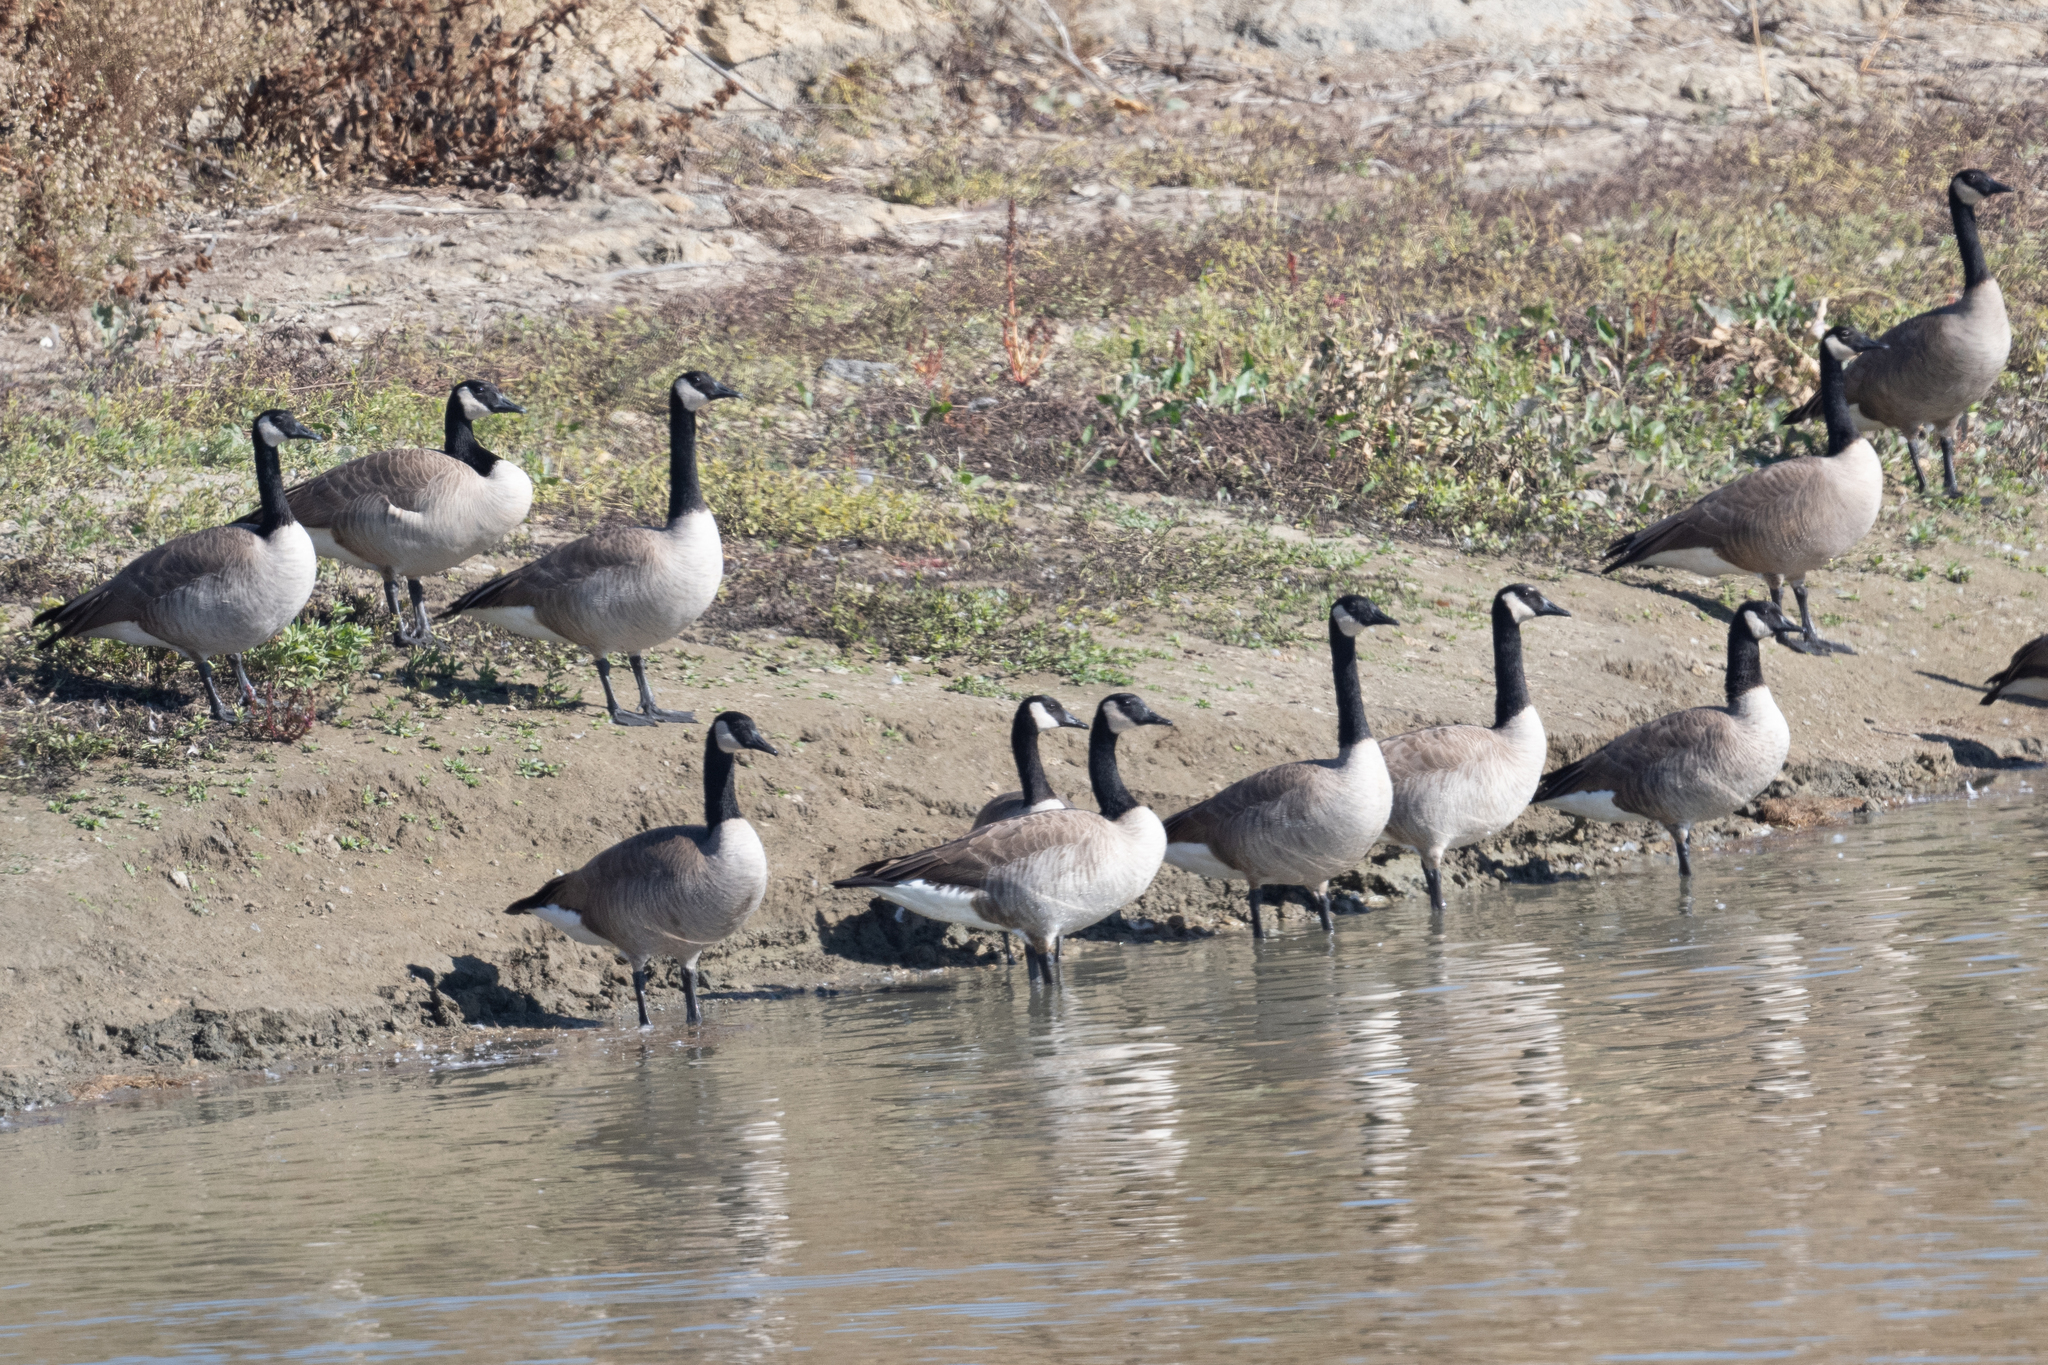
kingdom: Animalia
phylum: Chordata
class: Aves
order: Anseriformes
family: Anatidae
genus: Branta
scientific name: Branta canadensis
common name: Canada goose
